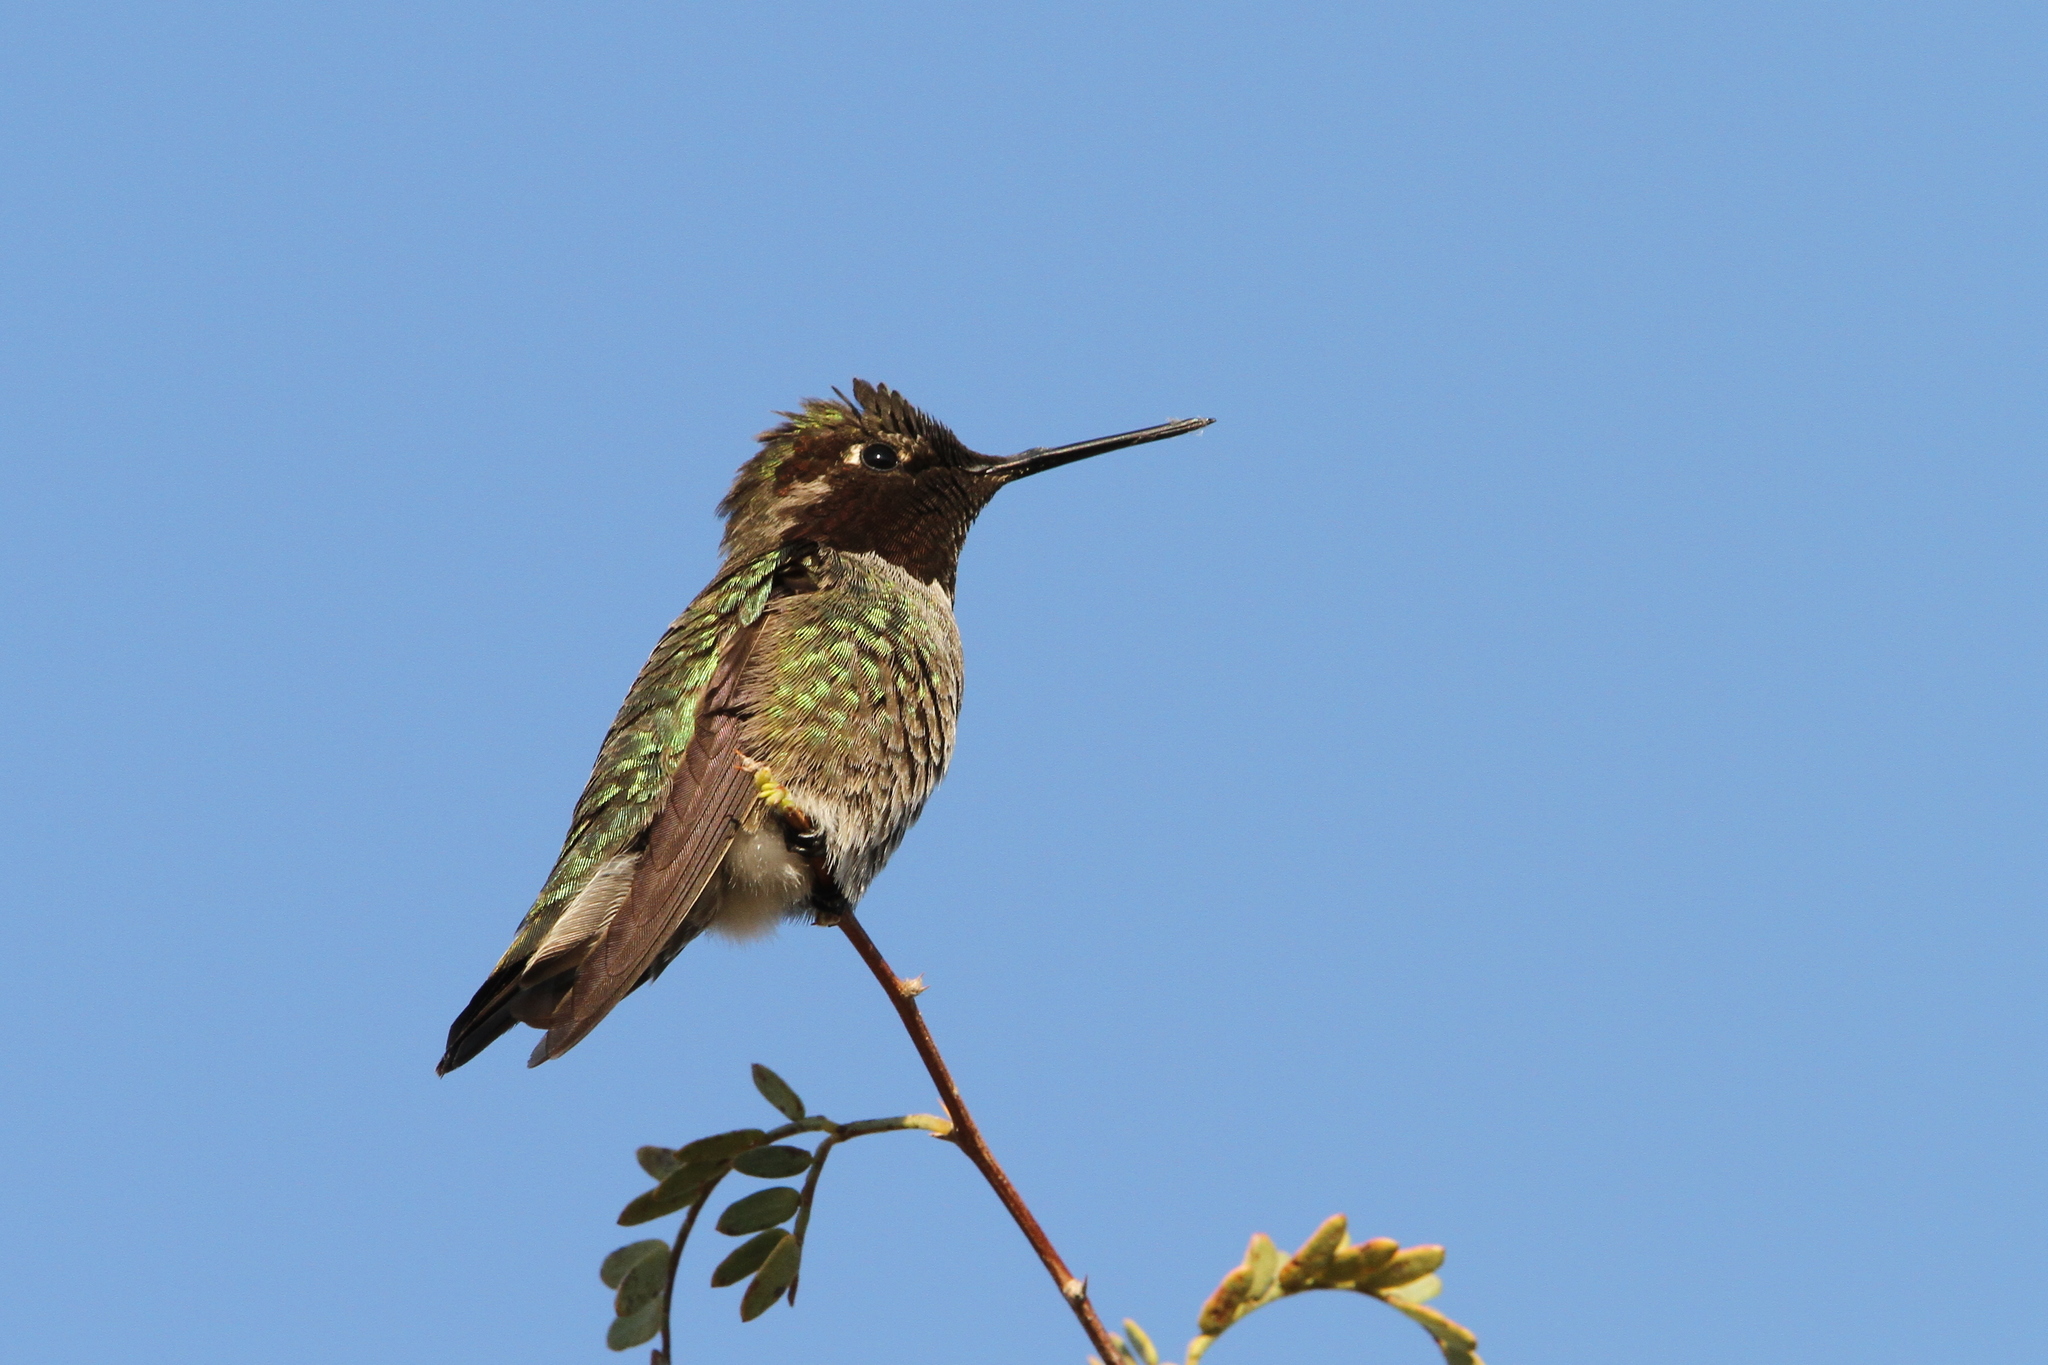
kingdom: Animalia
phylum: Chordata
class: Aves
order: Apodiformes
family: Trochilidae
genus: Calypte
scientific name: Calypte anna
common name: Anna's hummingbird
